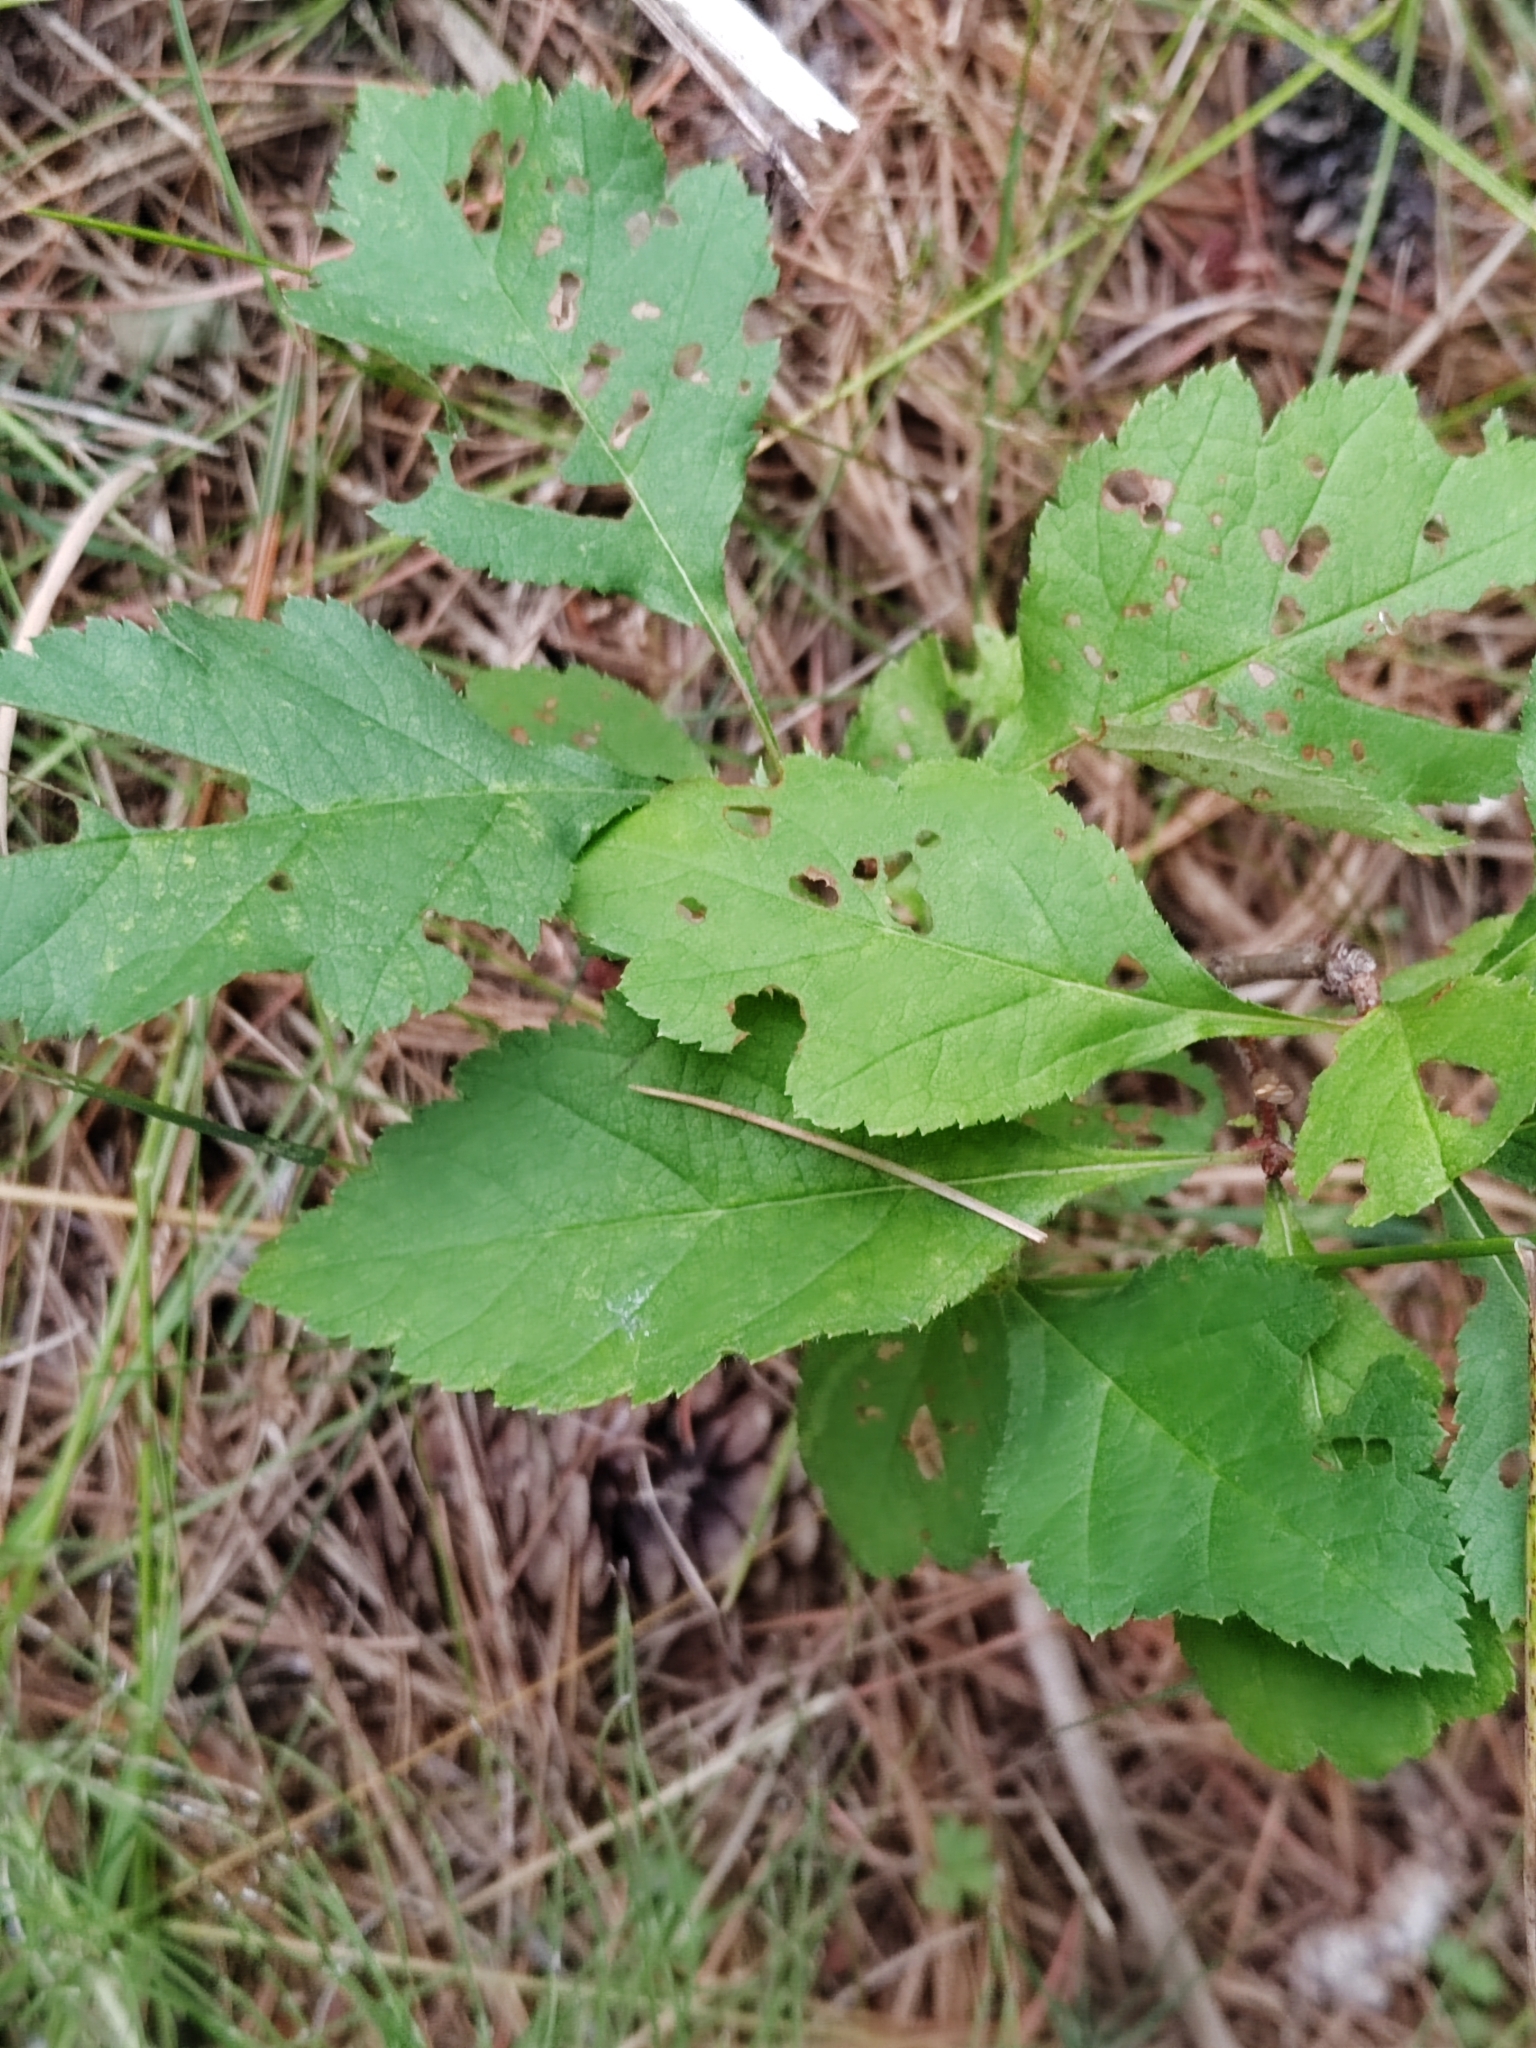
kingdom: Plantae
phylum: Tracheophyta
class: Magnoliopsida
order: Rosales
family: Rosaceae
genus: Crataegus
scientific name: Crataegus sanguinea
